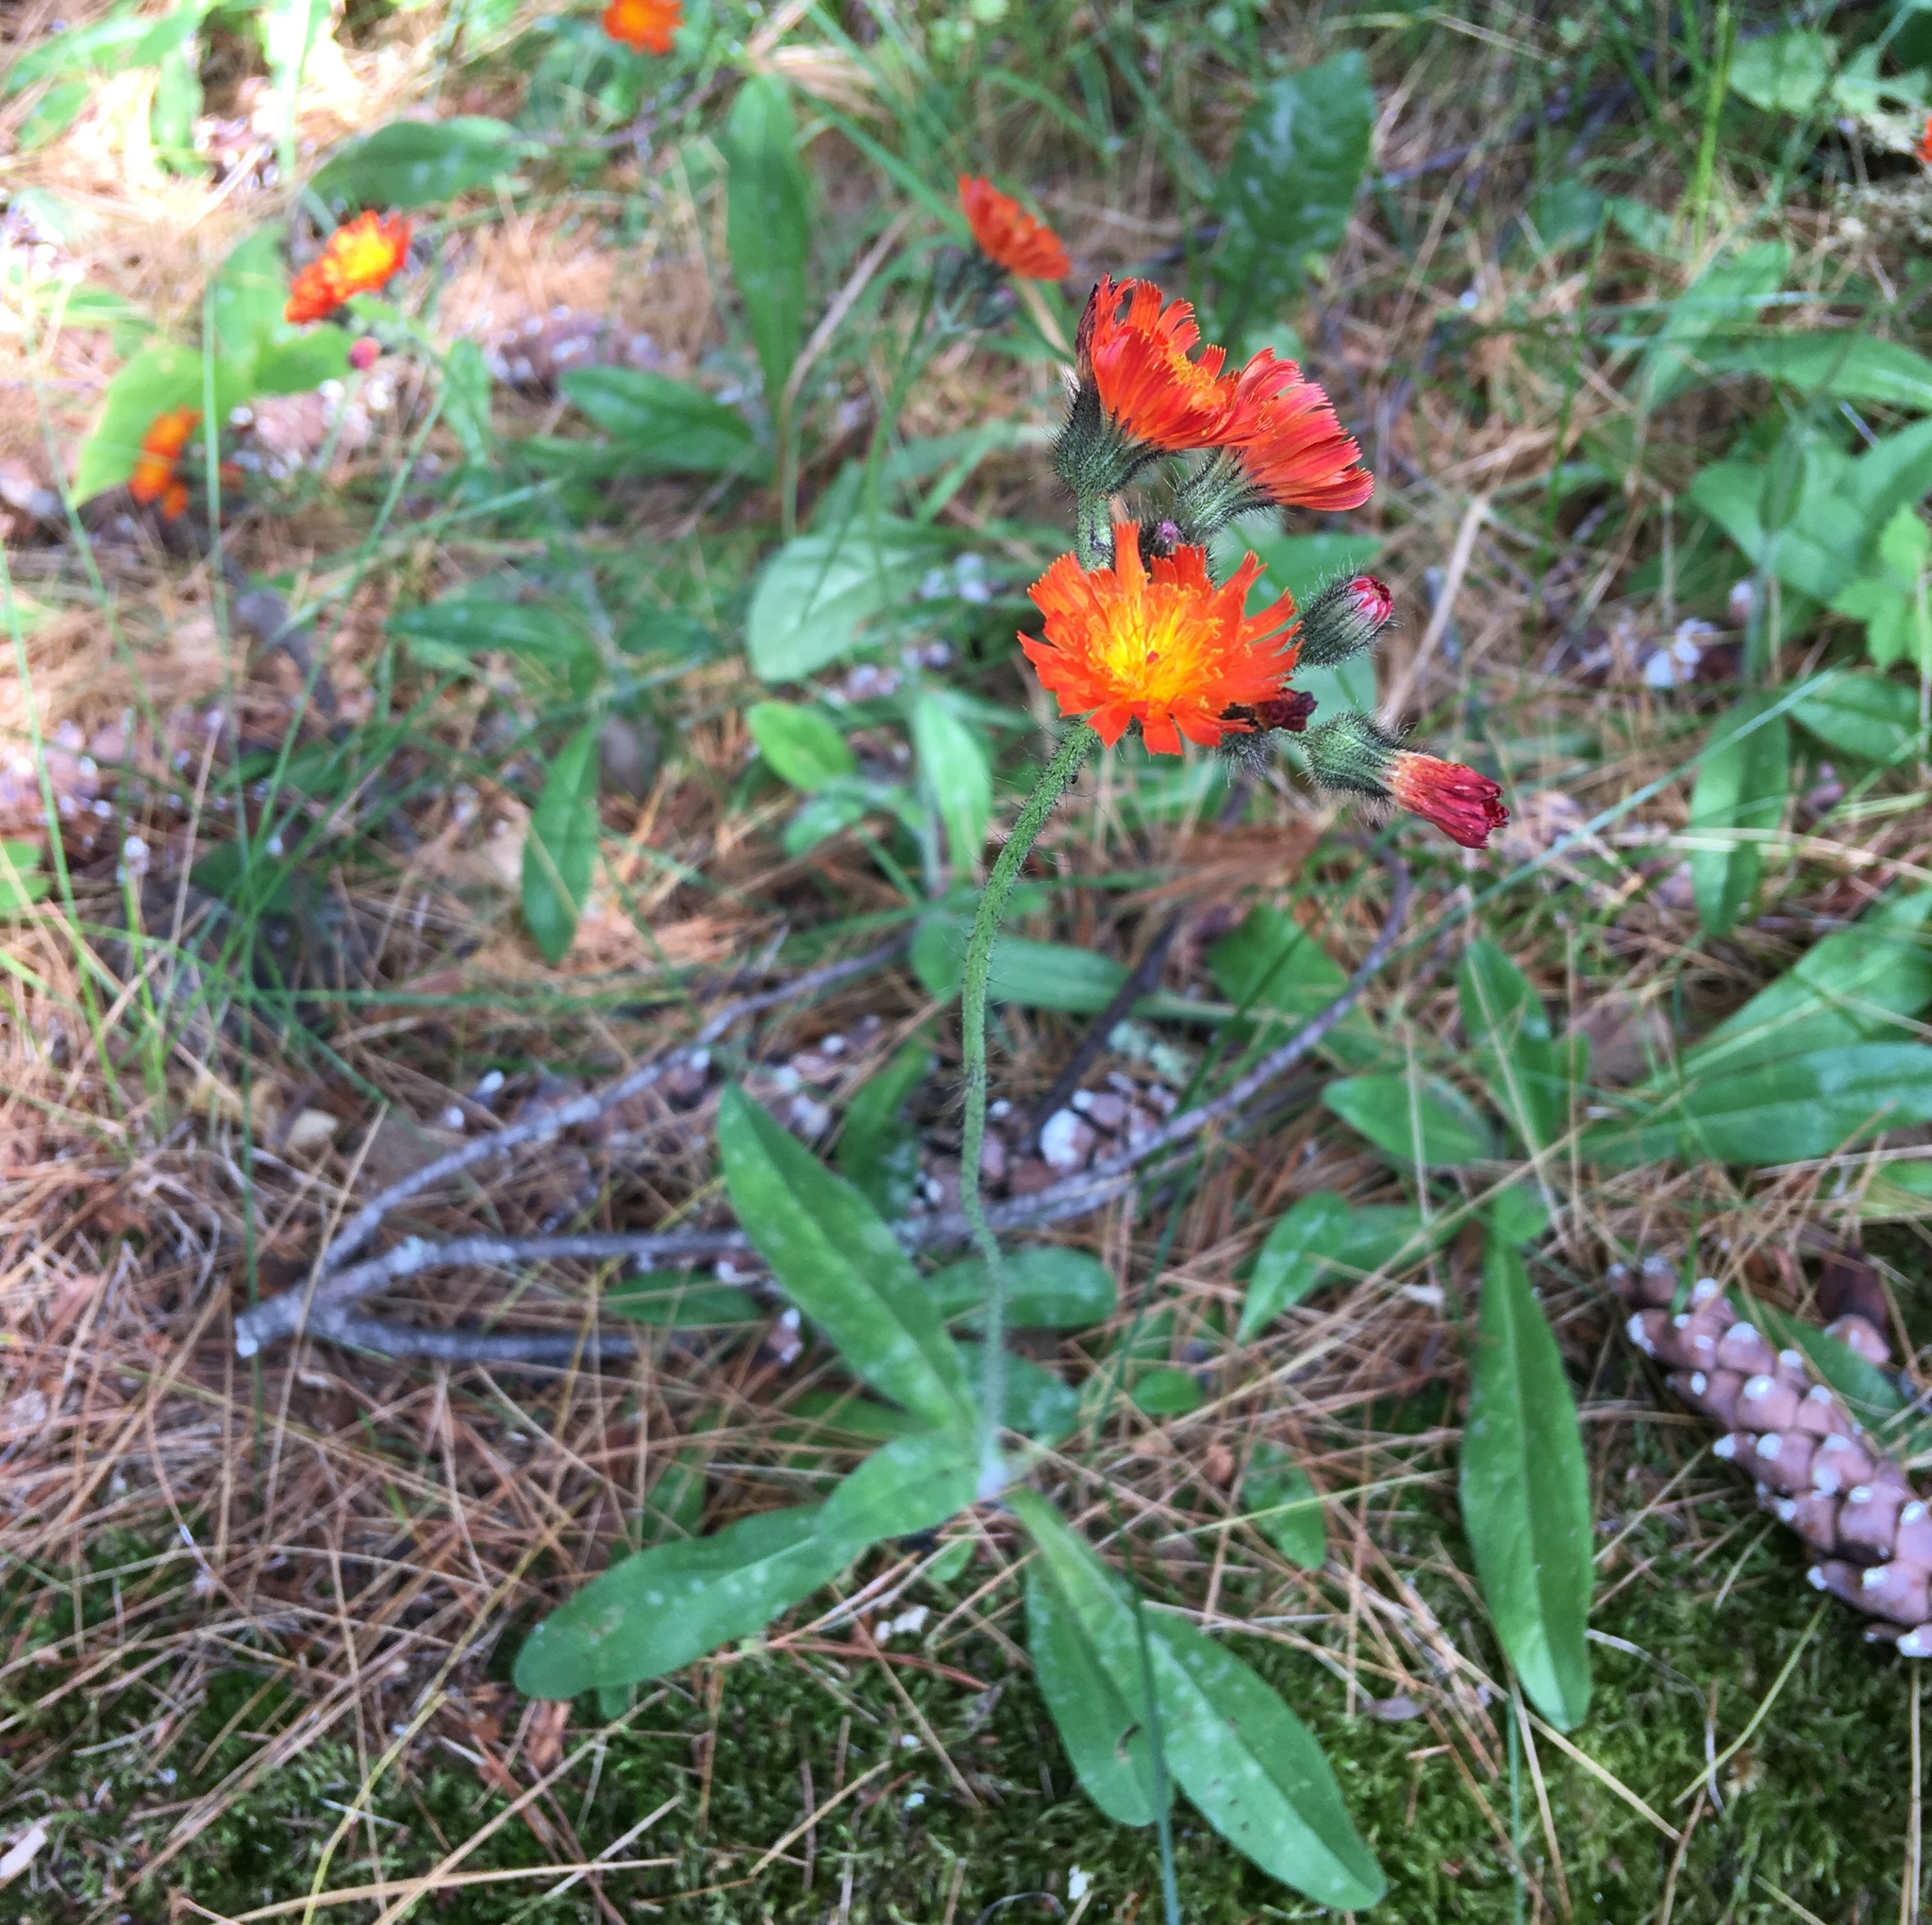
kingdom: Plantae
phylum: Tracheophyta
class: Magnoliopsida
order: Asterales
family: Asteraceae
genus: Pilosella
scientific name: Pilosella aurantiaca
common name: Fox-and-cubs
